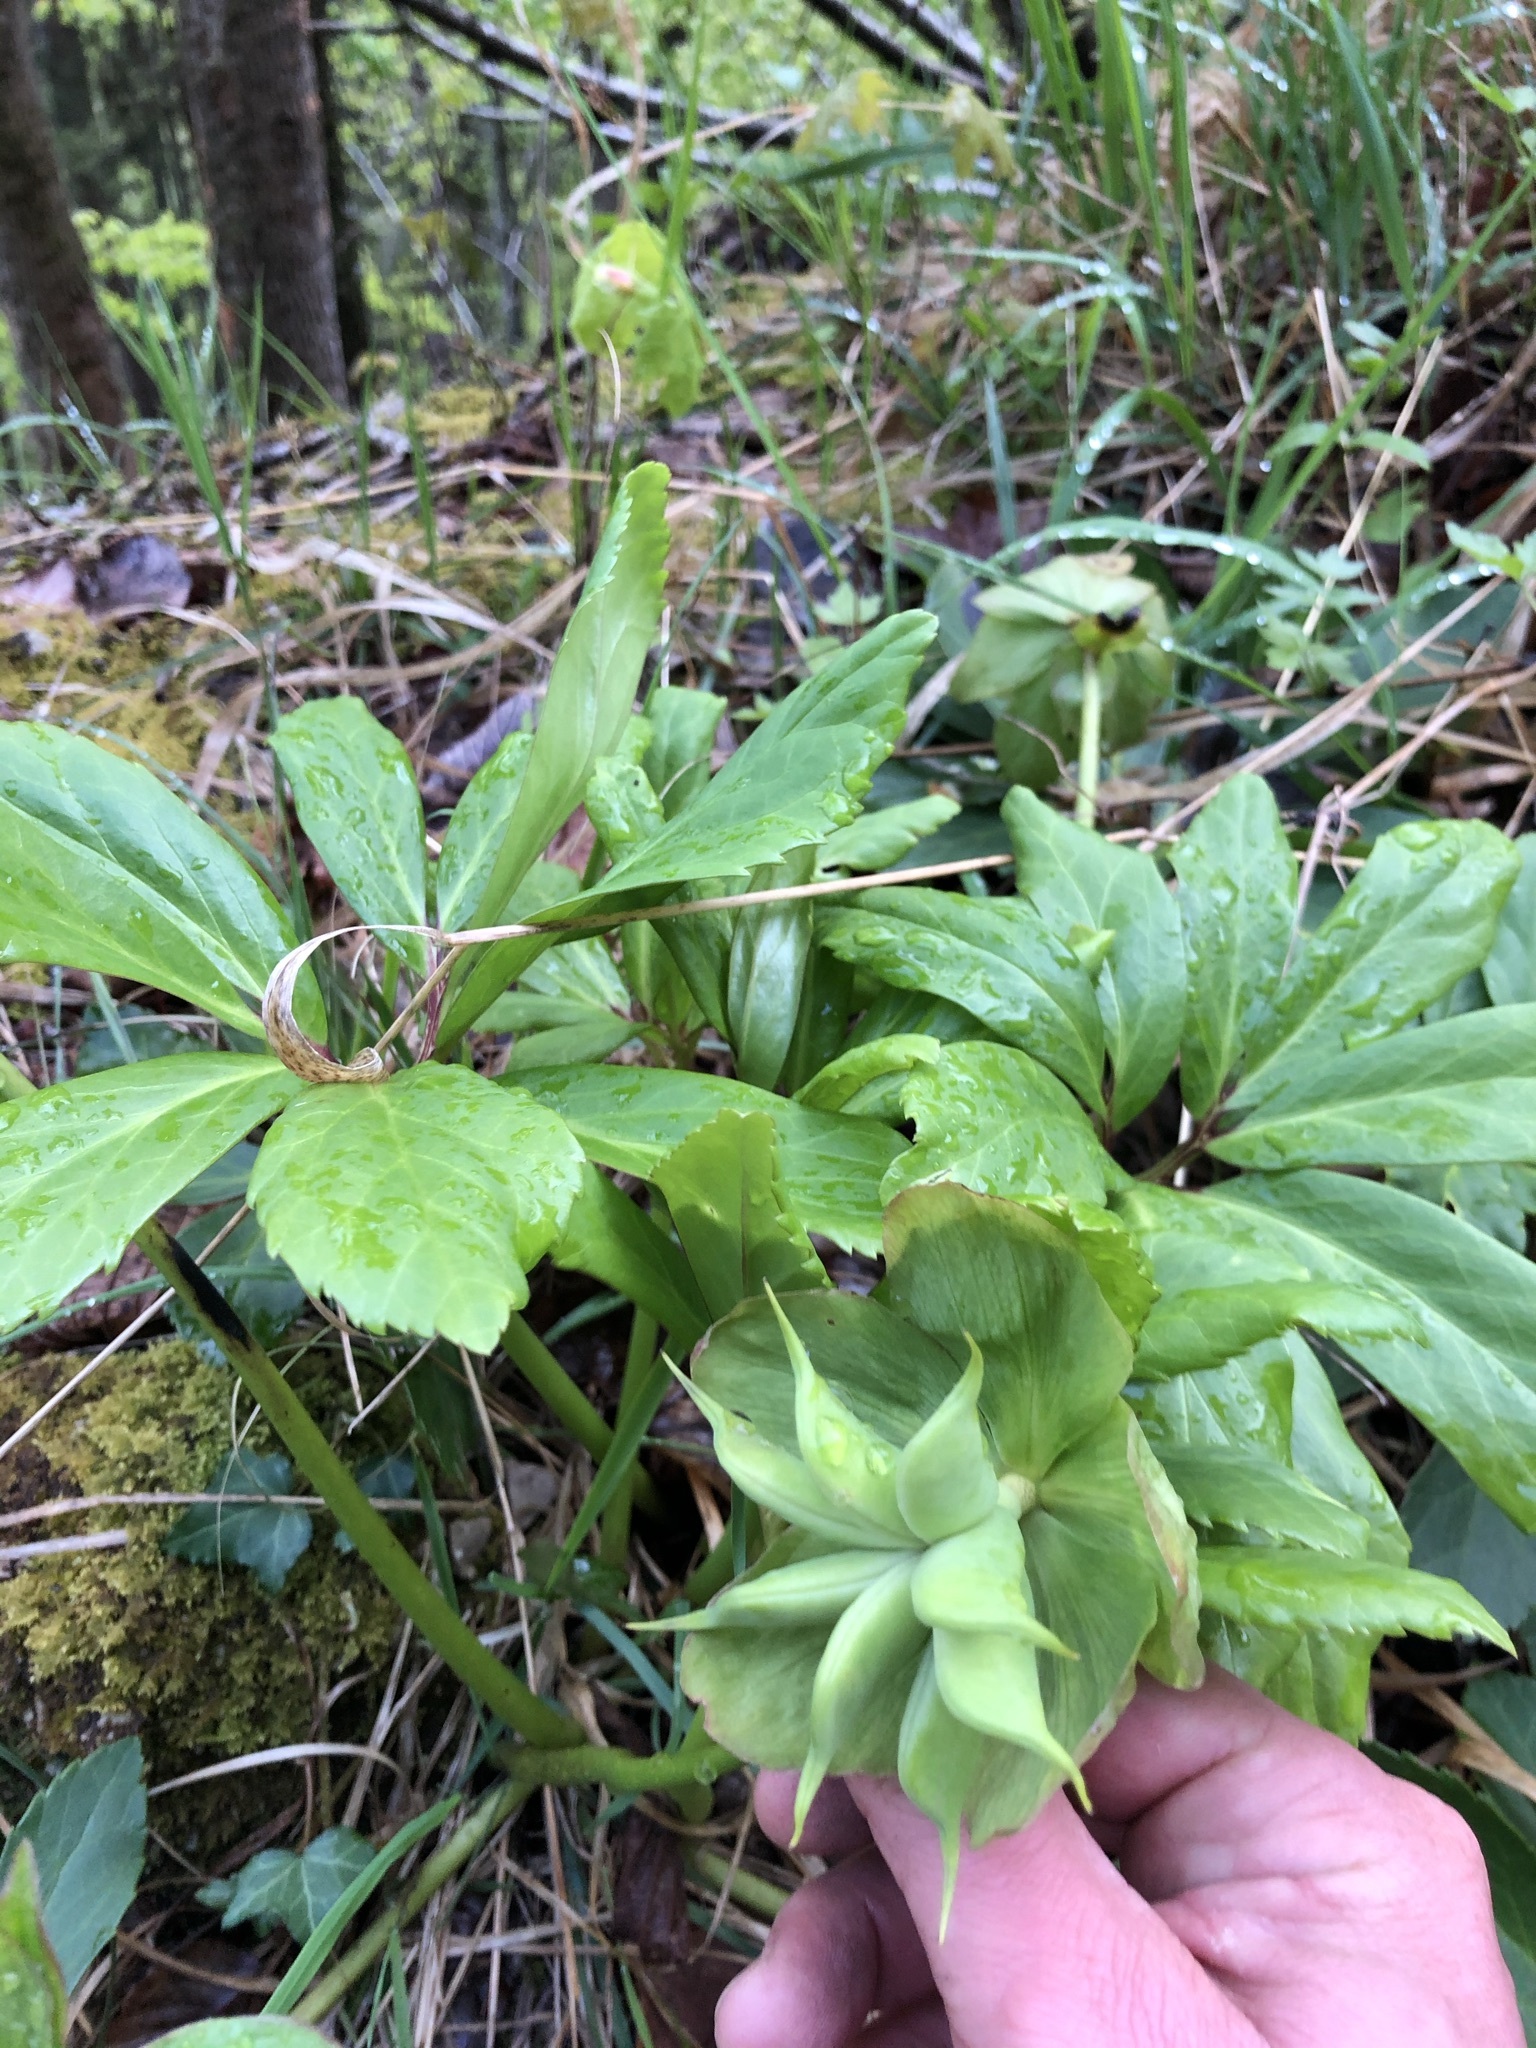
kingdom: Plantae
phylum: Tracheophyta
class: Magnoliopsida
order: Ranunculales
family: Ranunculaceae
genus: Helleborus
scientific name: Helleborus niger
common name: Black hellebore
